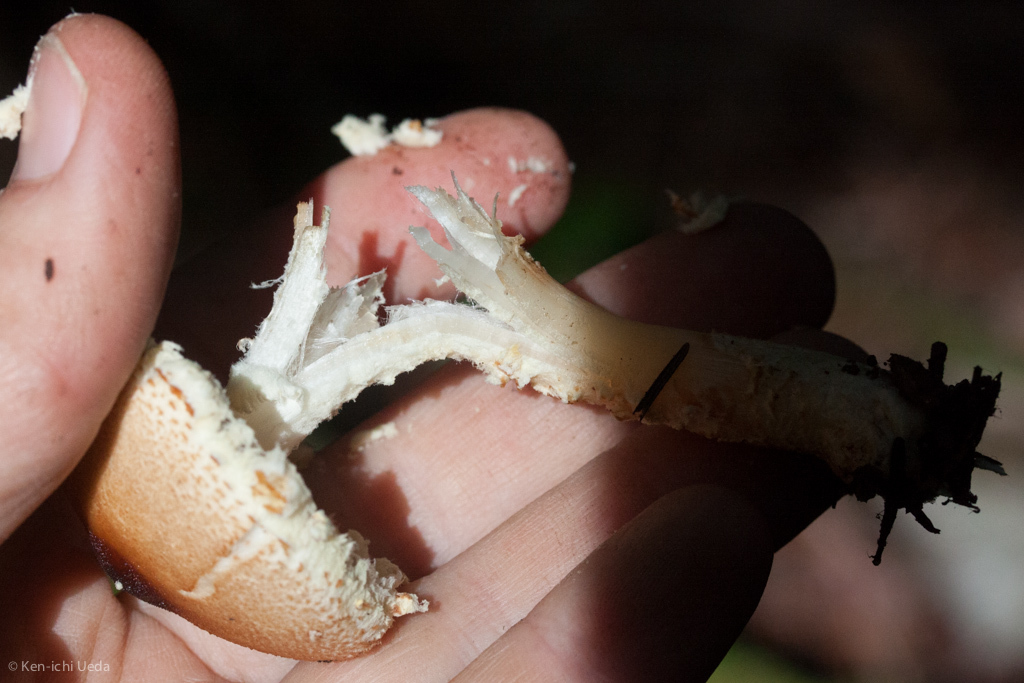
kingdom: Fungi
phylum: Basidiomycota
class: Agaricomycetes
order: Agaricales
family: Agaricaceae
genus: Lepiota
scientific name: Lepiota magnispora
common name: Yellowfoot dapperling
